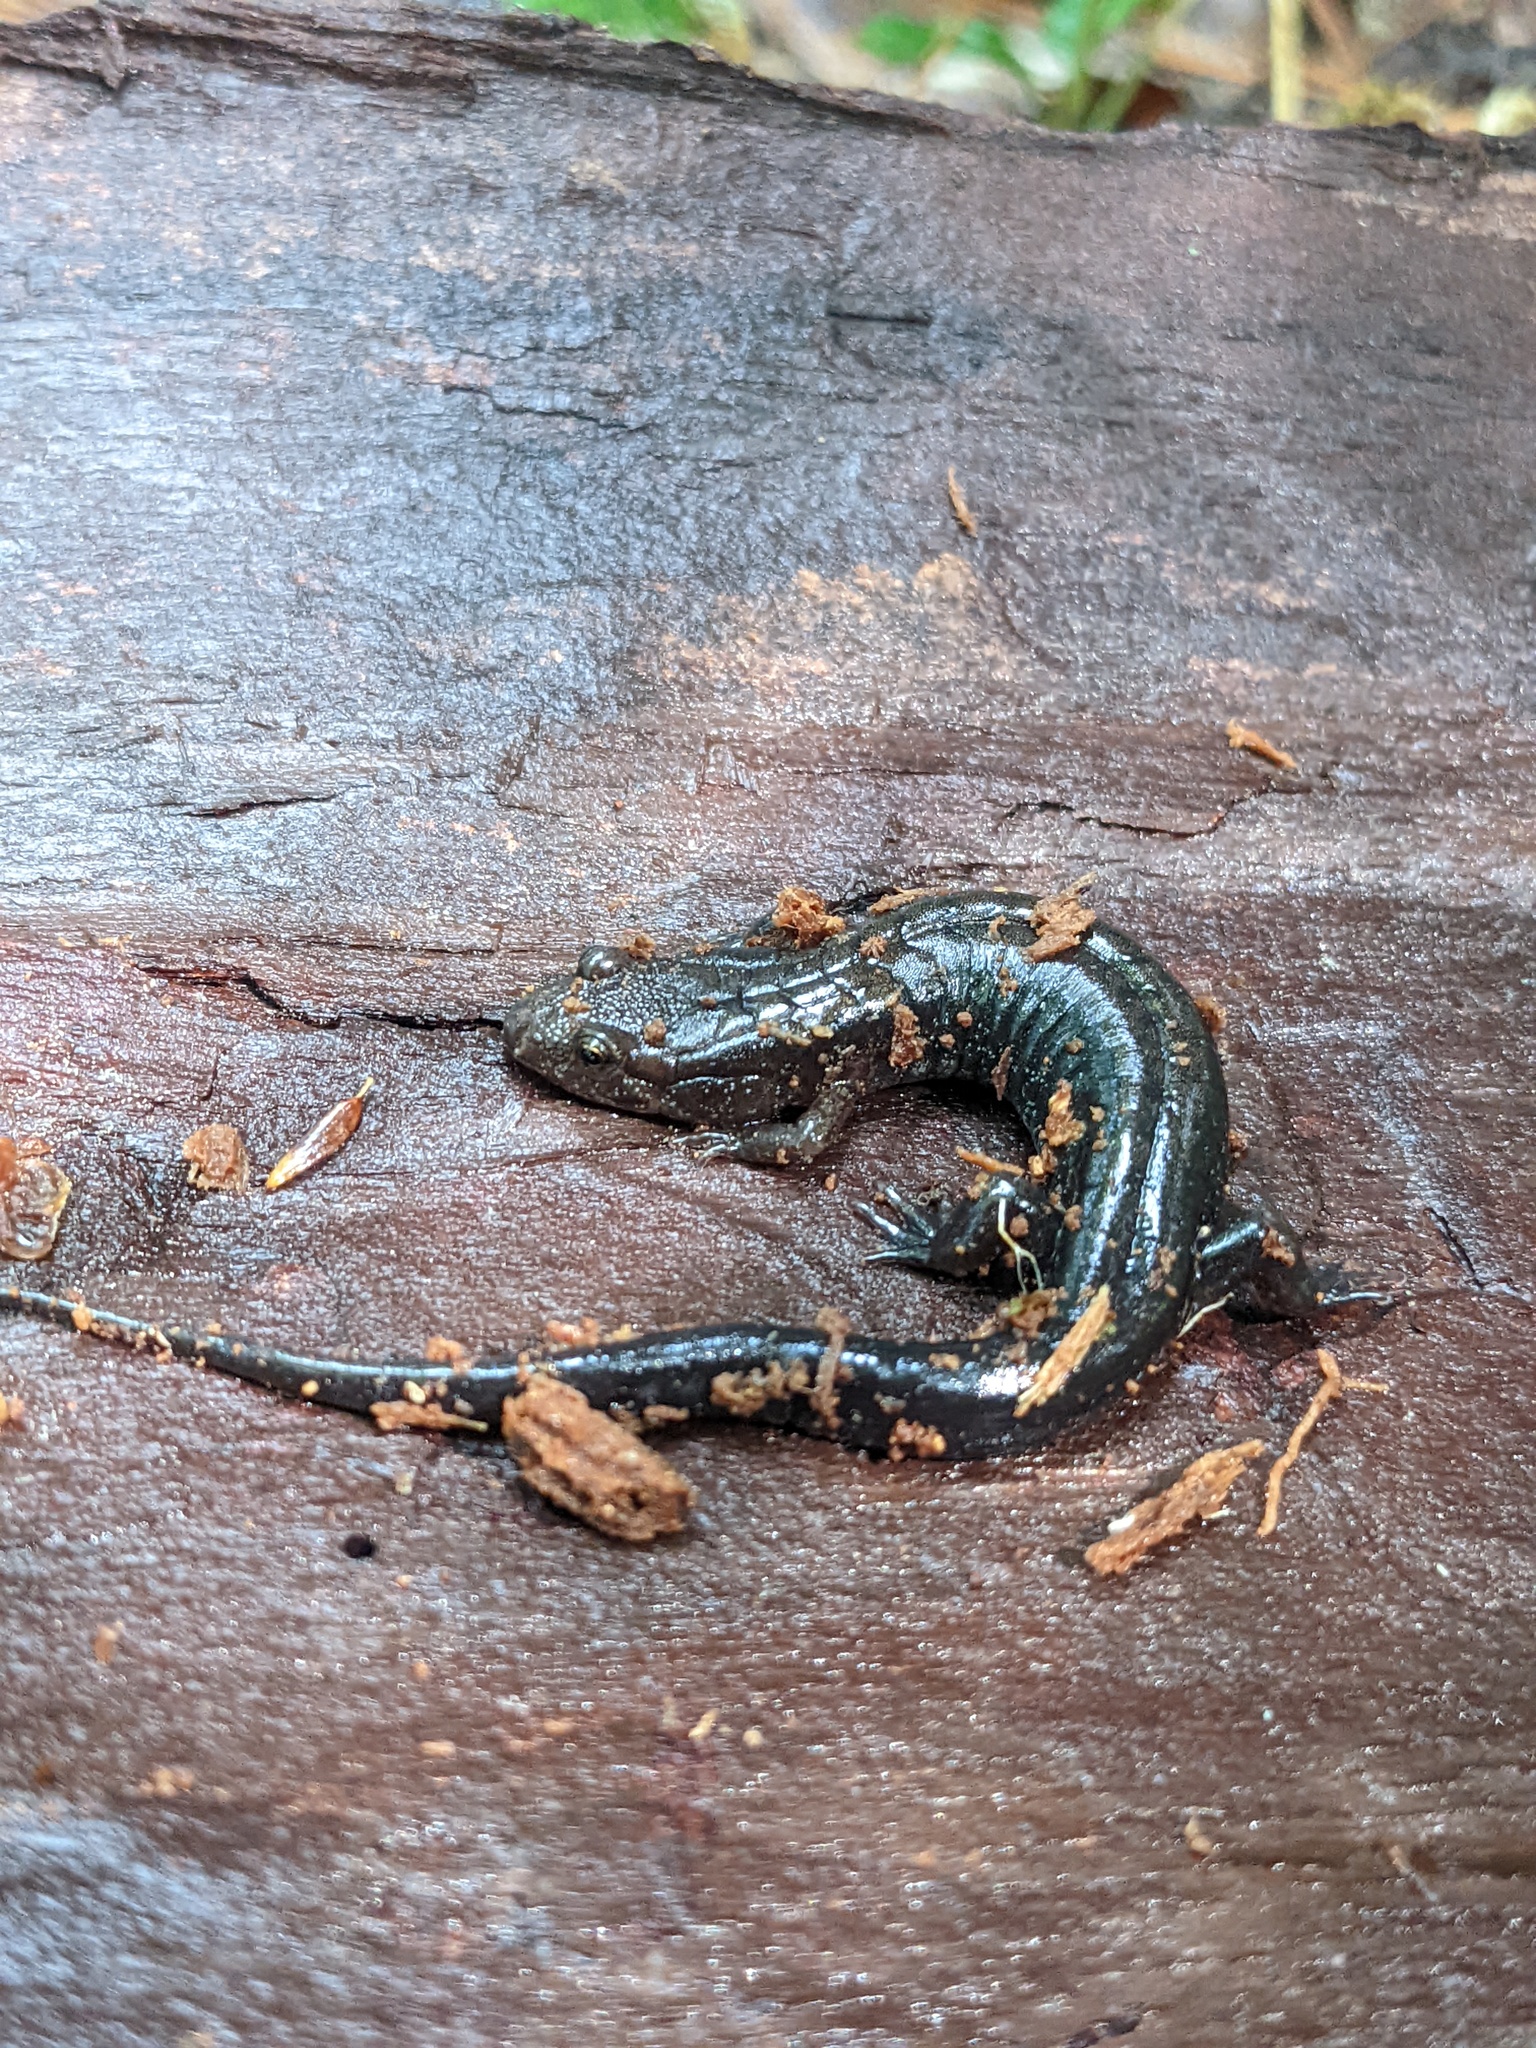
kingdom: Animalia
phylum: Chordata
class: Amphibia
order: Caudata
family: Plethodontidae
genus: Desmognathus
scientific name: Desmognathus ochrophaeus
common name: Allegheny mountain dusky salamander
